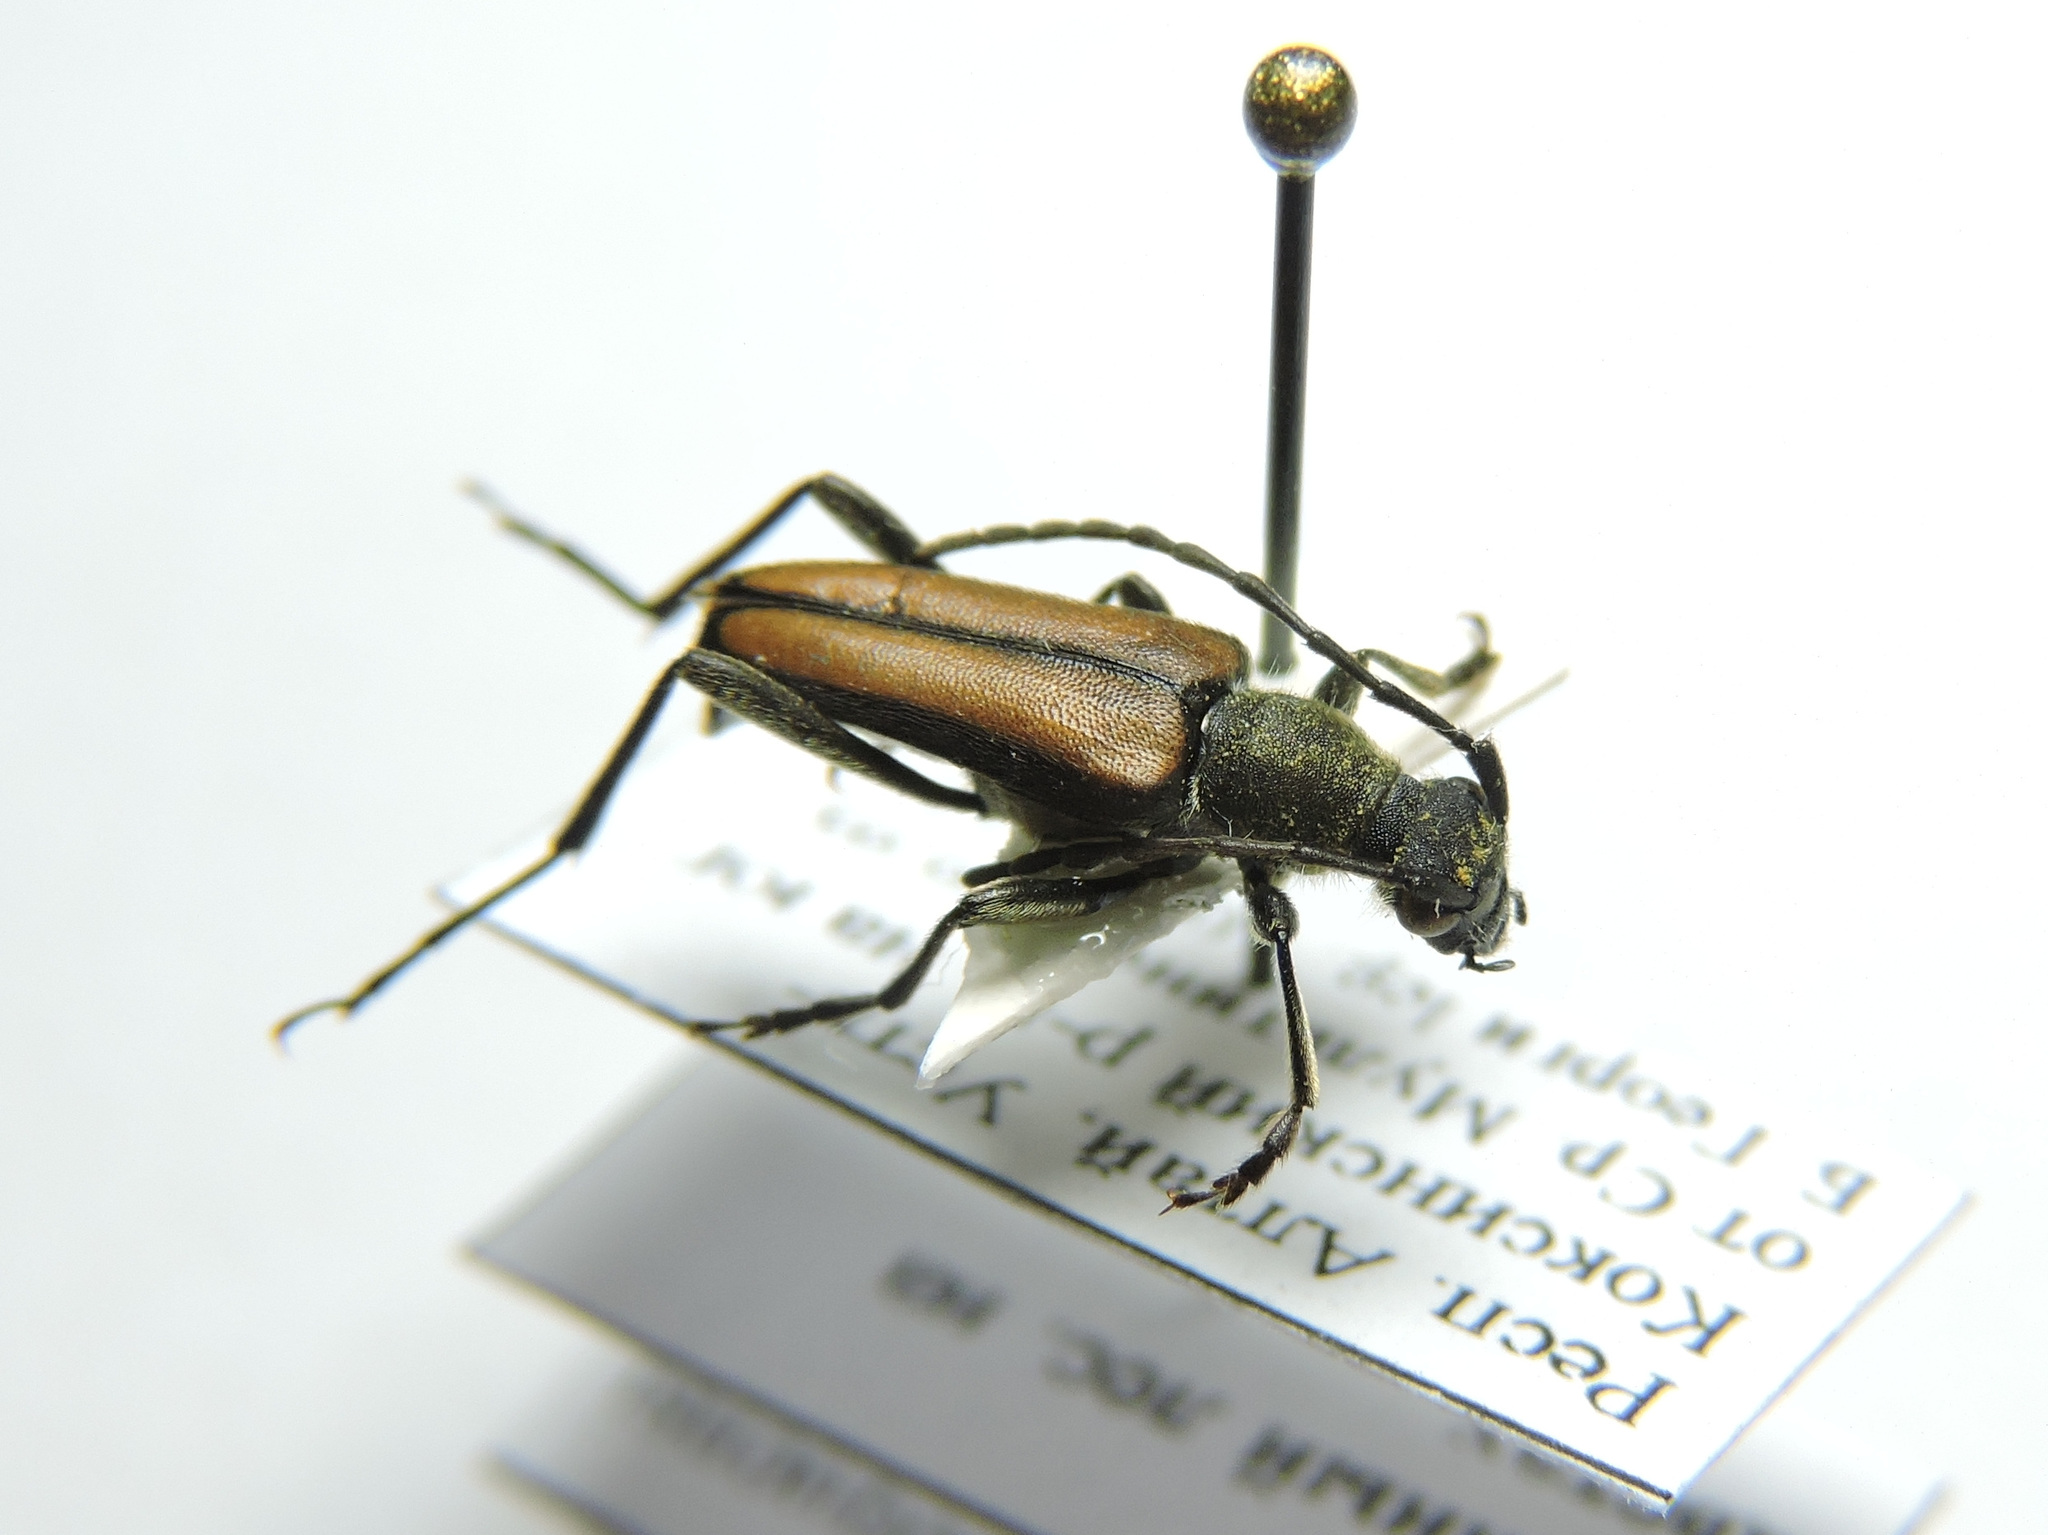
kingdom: Animalia
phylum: Arthropoda
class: Insecta
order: Coleoptera
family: Cerambycidae
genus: Anastrangalia
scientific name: Anastrangalia reyi
